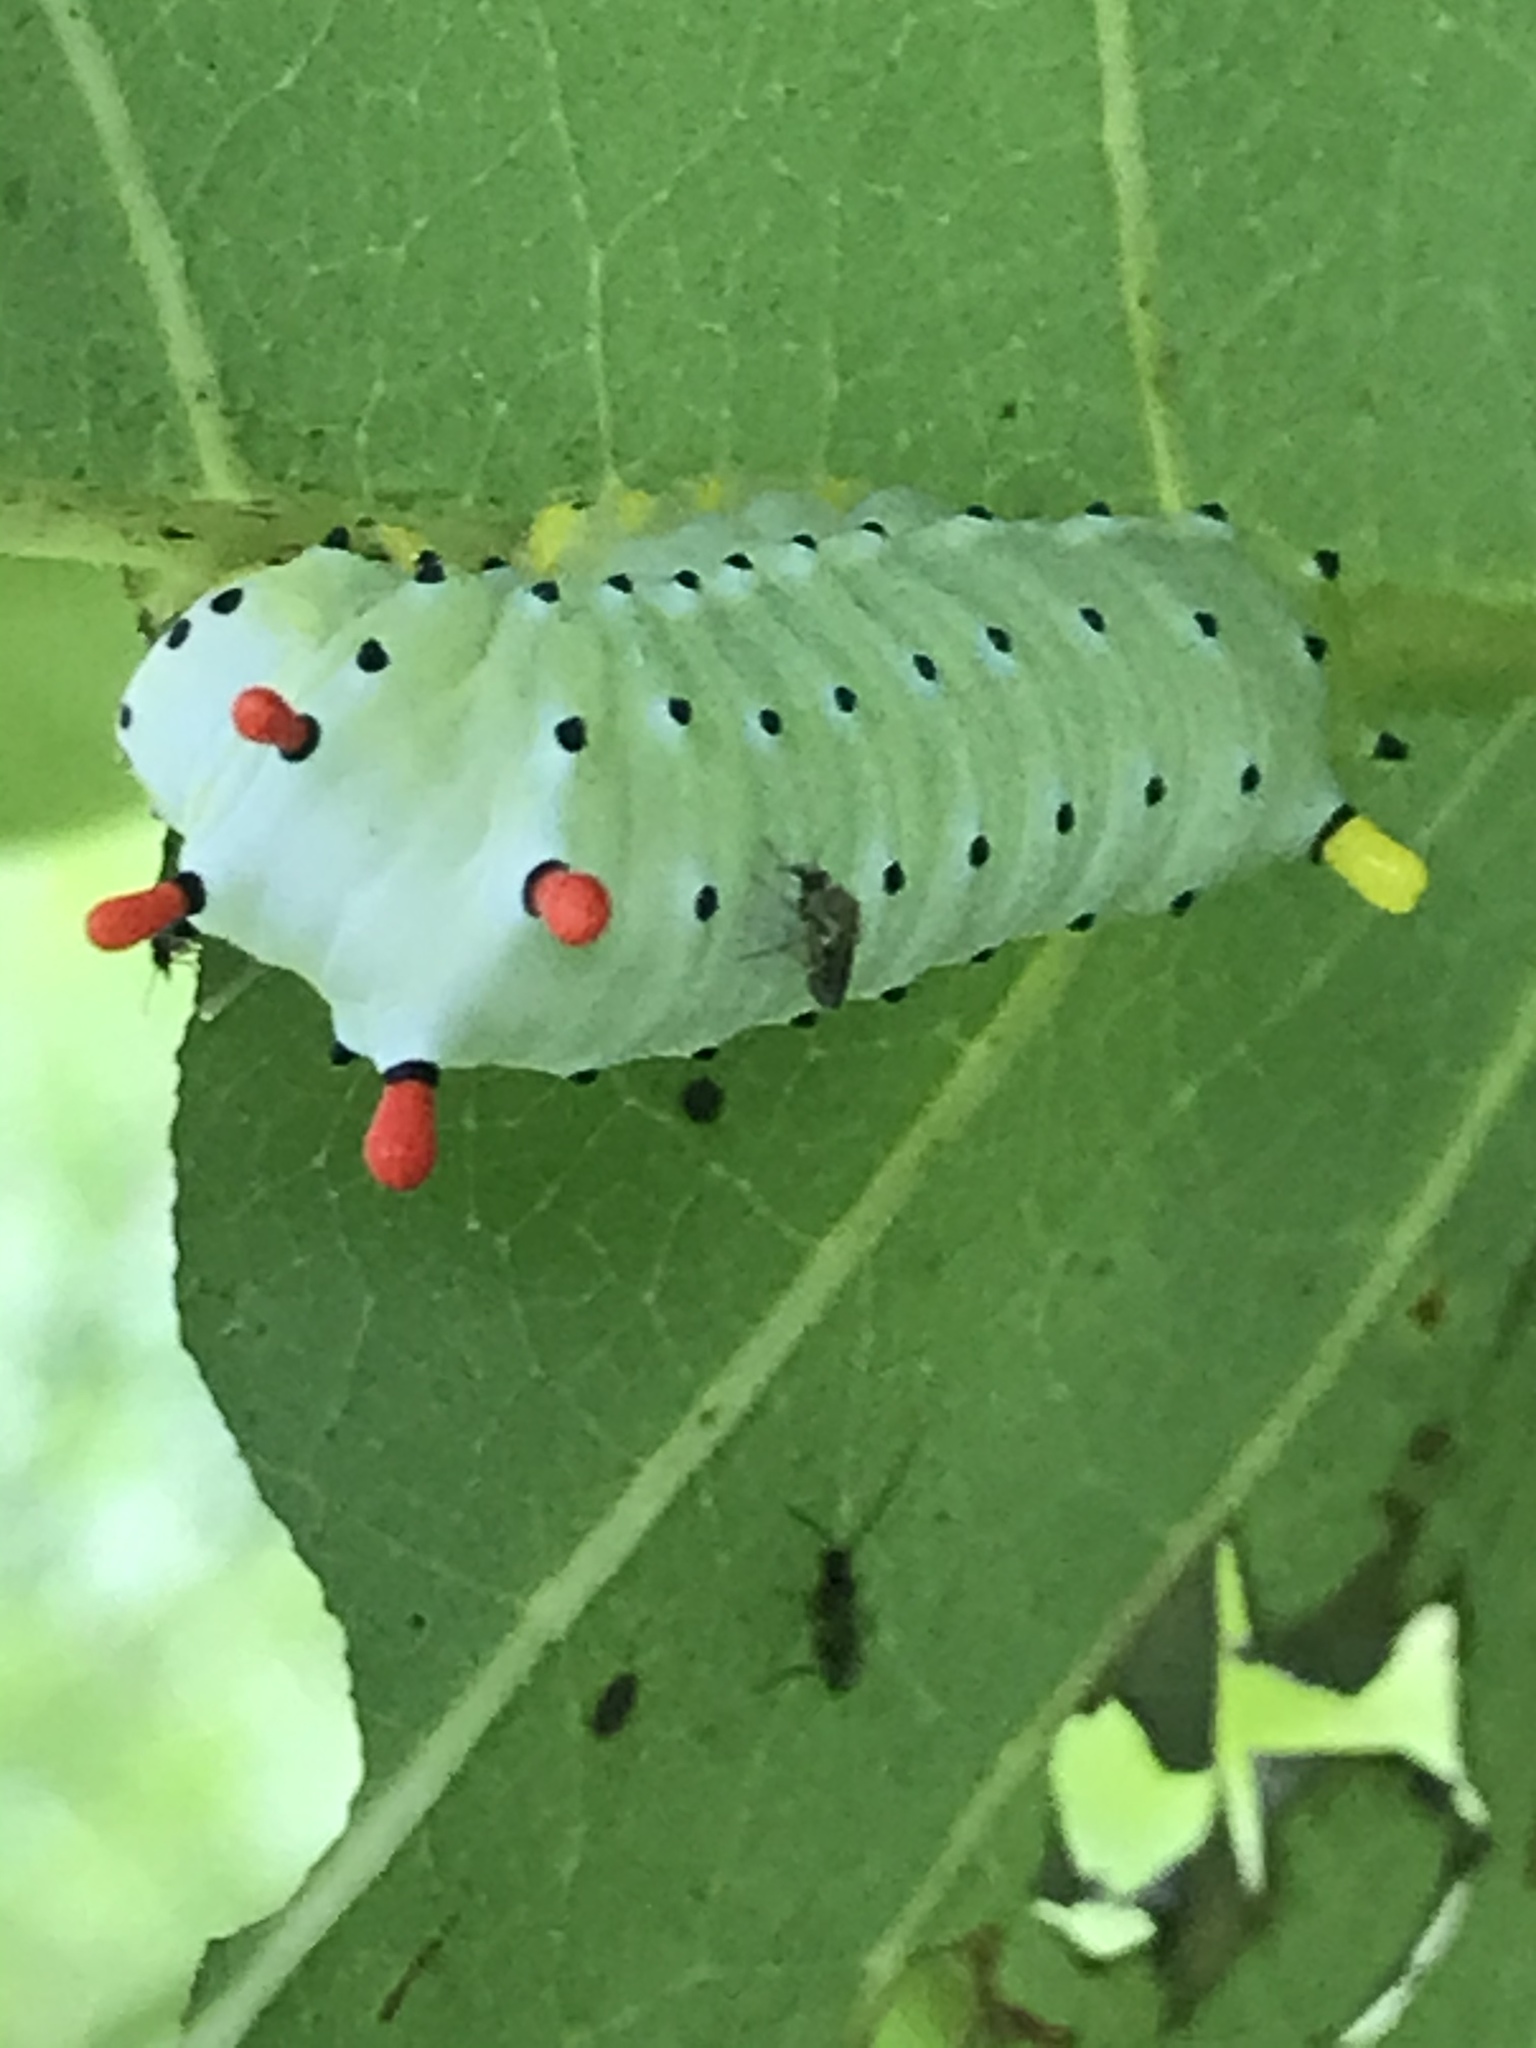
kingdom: Animalia
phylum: Arthropoda
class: Insecta
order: Lepidoptera
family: Saturniidae
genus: Callosamia
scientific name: Callosamia promethea
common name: Promethea silkmoth
